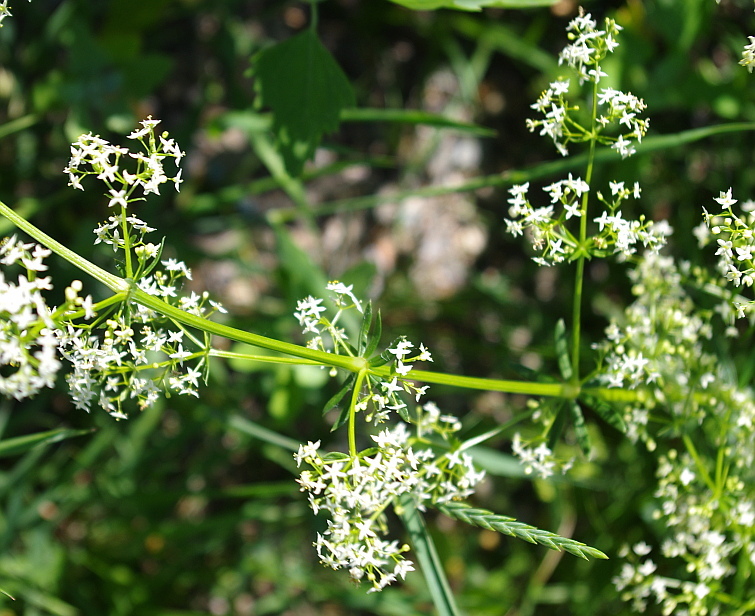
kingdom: Plantae
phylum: Tracheophyta
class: Magnoliopsida
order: Gentianales
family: Rubiaceae
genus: Galium
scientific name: Galium mollugo
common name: Hedge bedstraw
